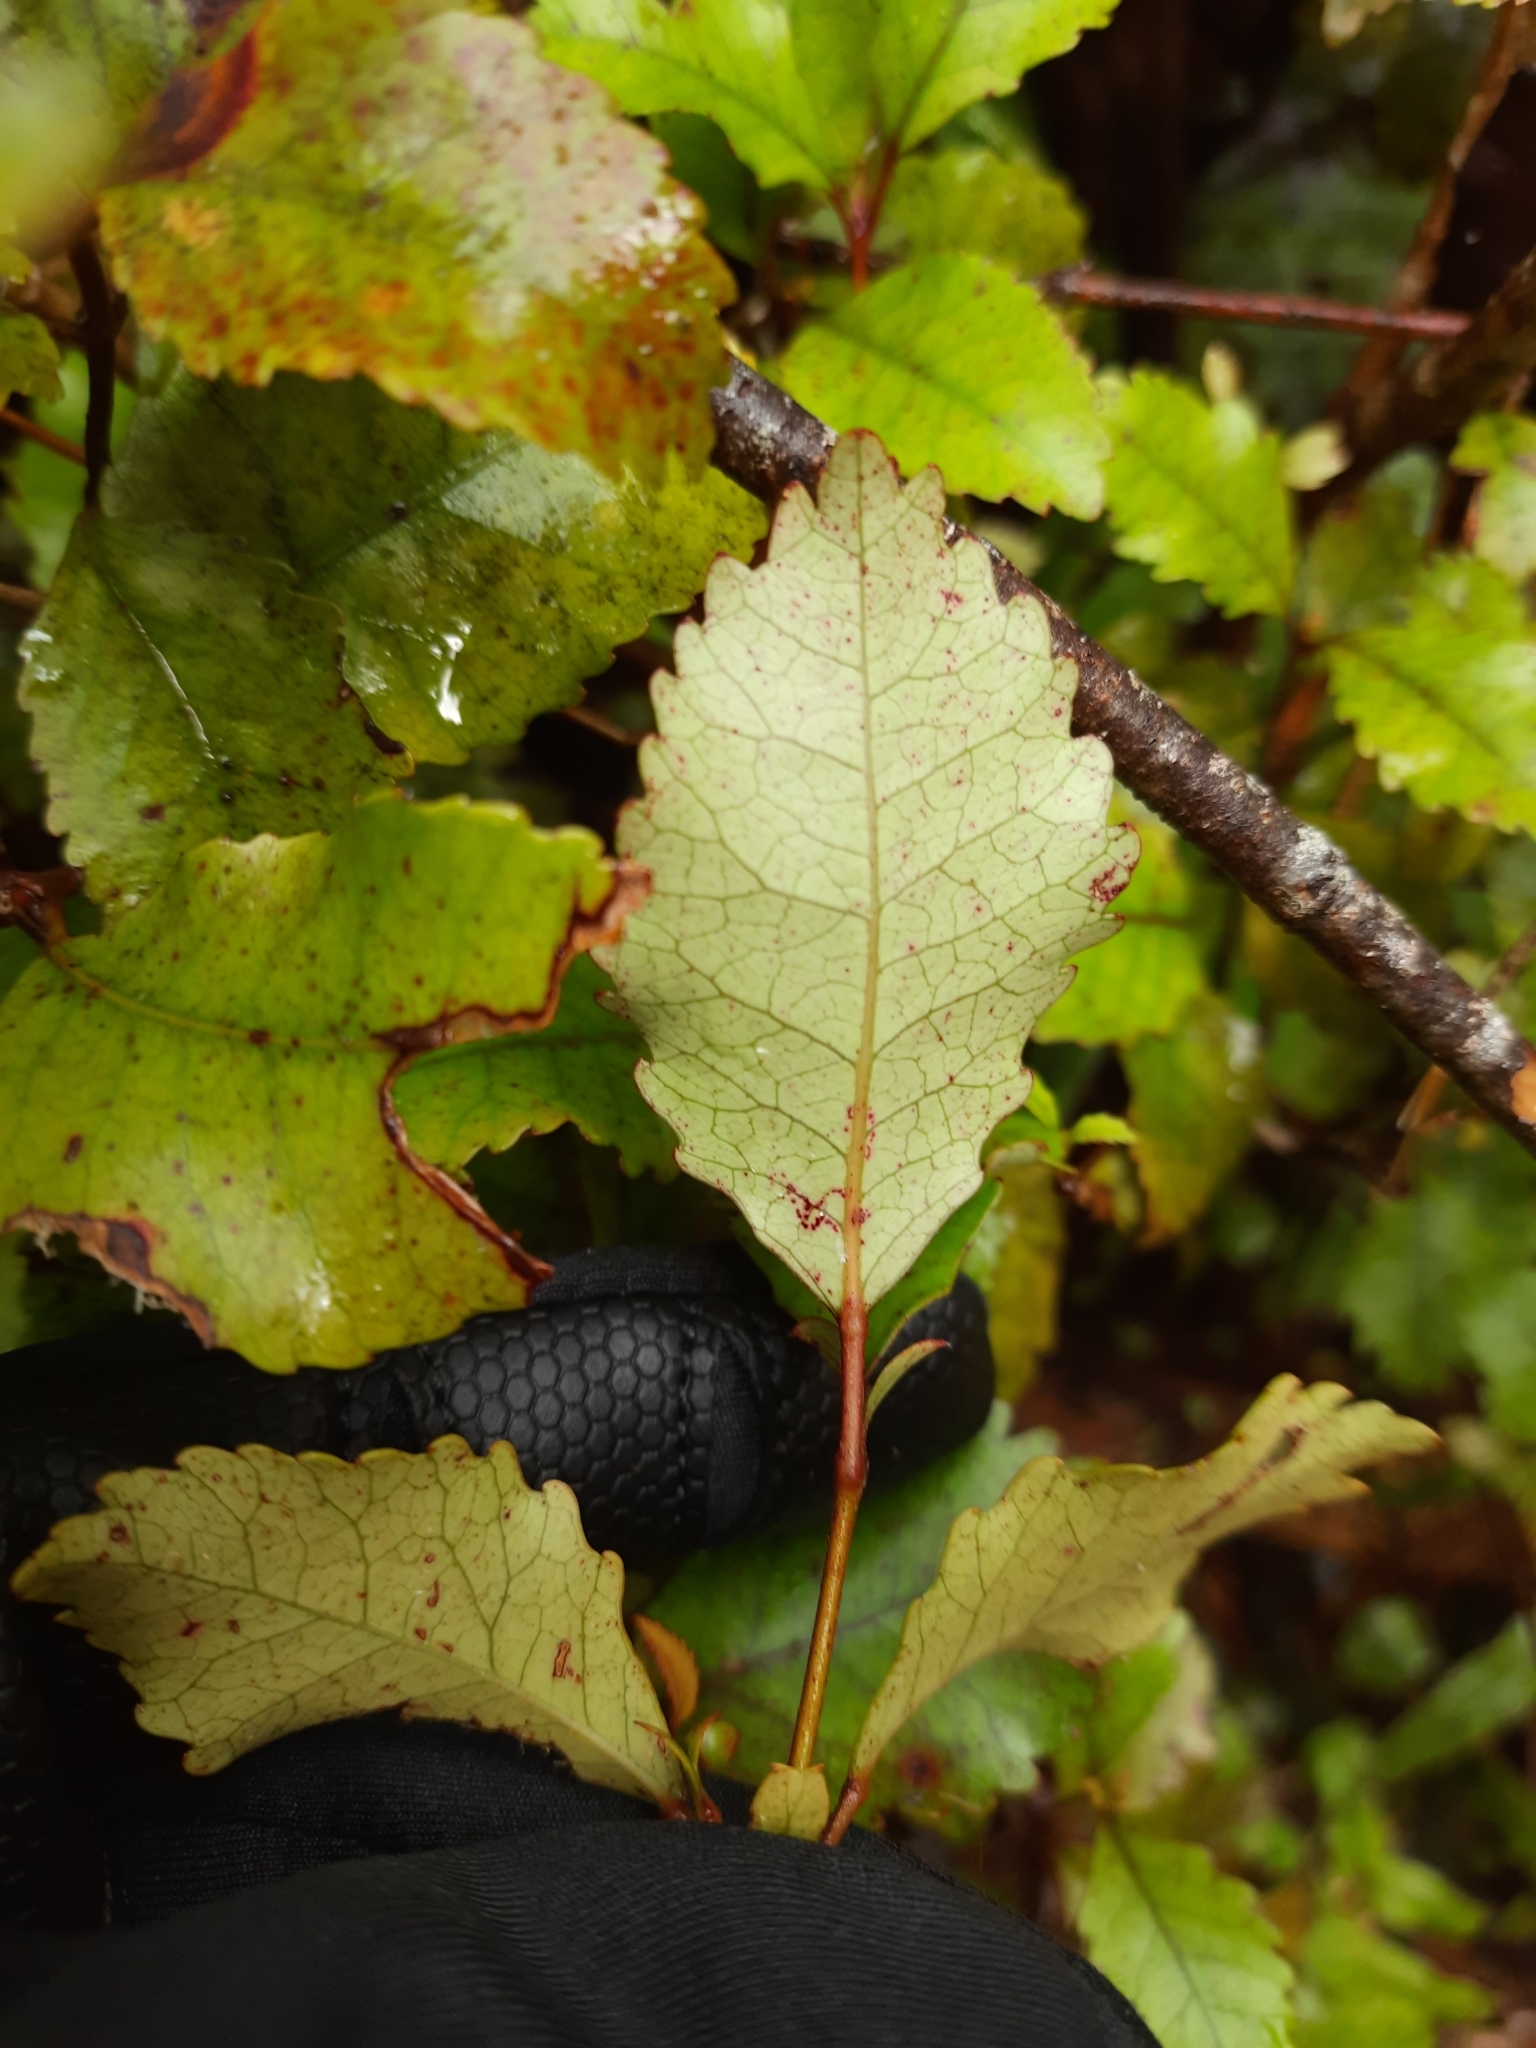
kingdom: Plantae
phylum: Tracheophyta
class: Magnoliopsida
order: Oxalidales
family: Cunoniaceae
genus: Pterophylla
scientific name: Pterophylla racemosa
